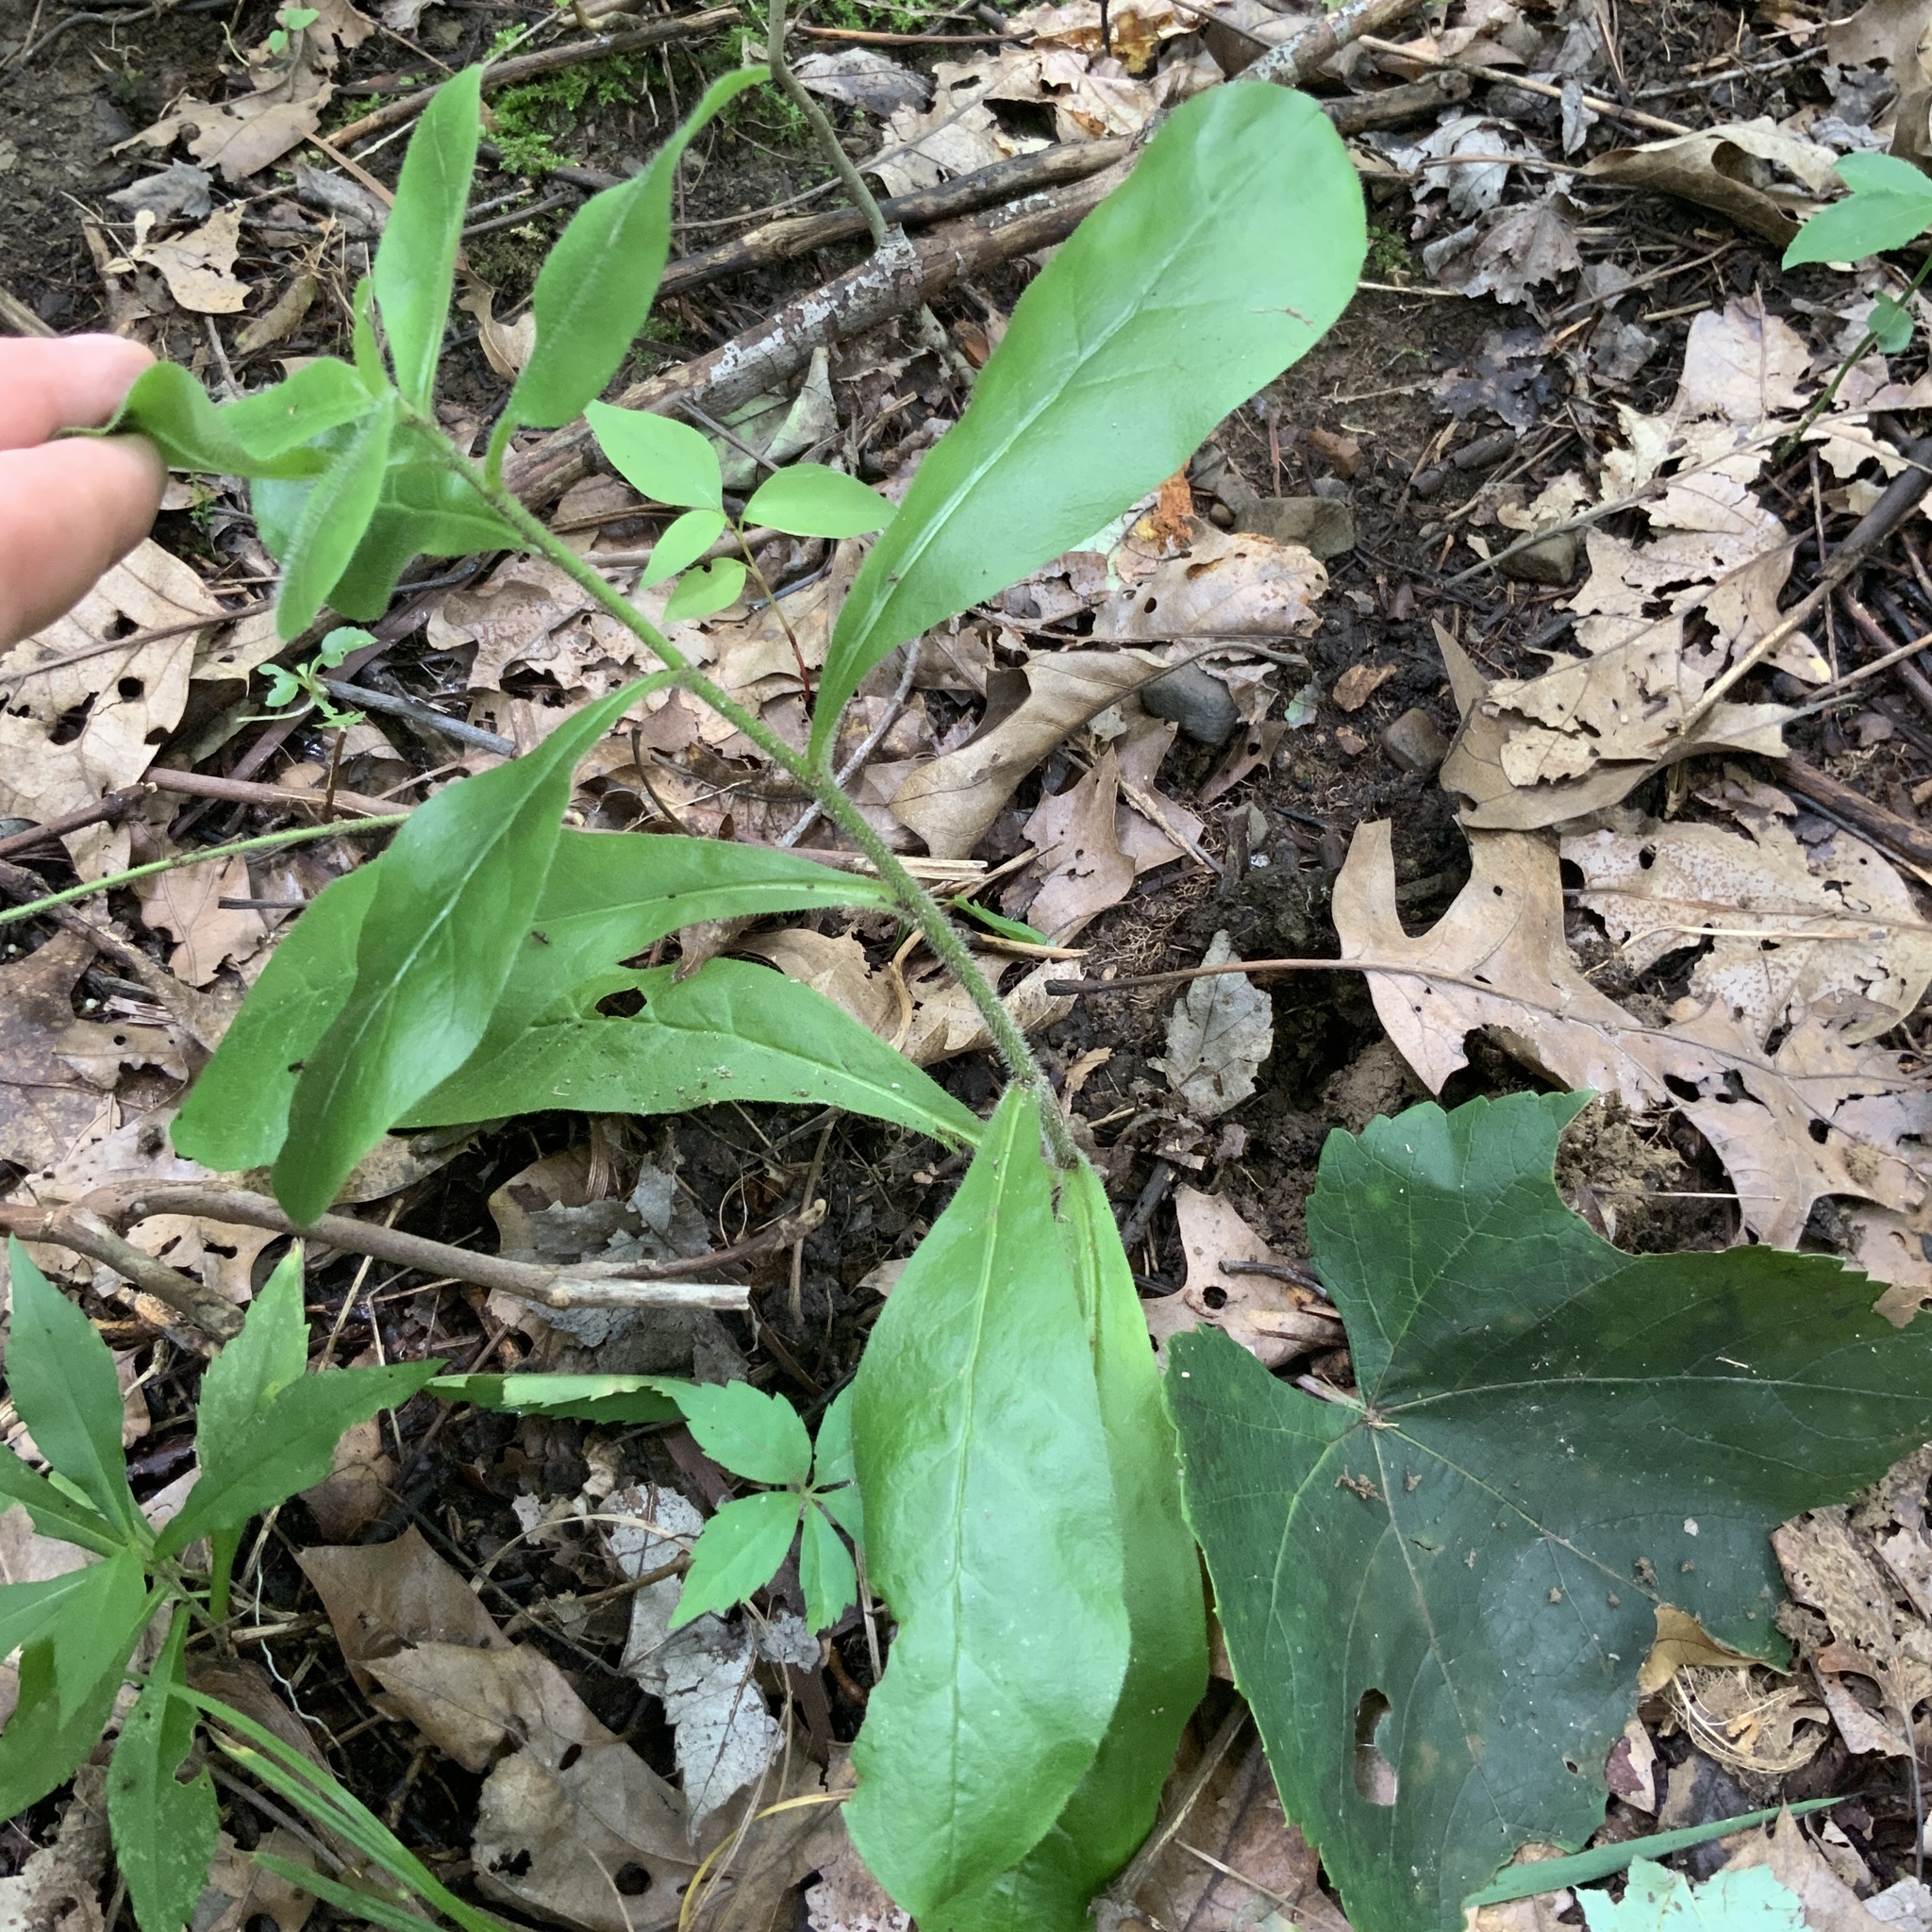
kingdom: Plantae
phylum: Tracheophyta
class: Magnoliopsida
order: Asterales
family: Asteraceae
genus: Hieracium
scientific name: Hieracium scabrum
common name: Rough hawkweed
